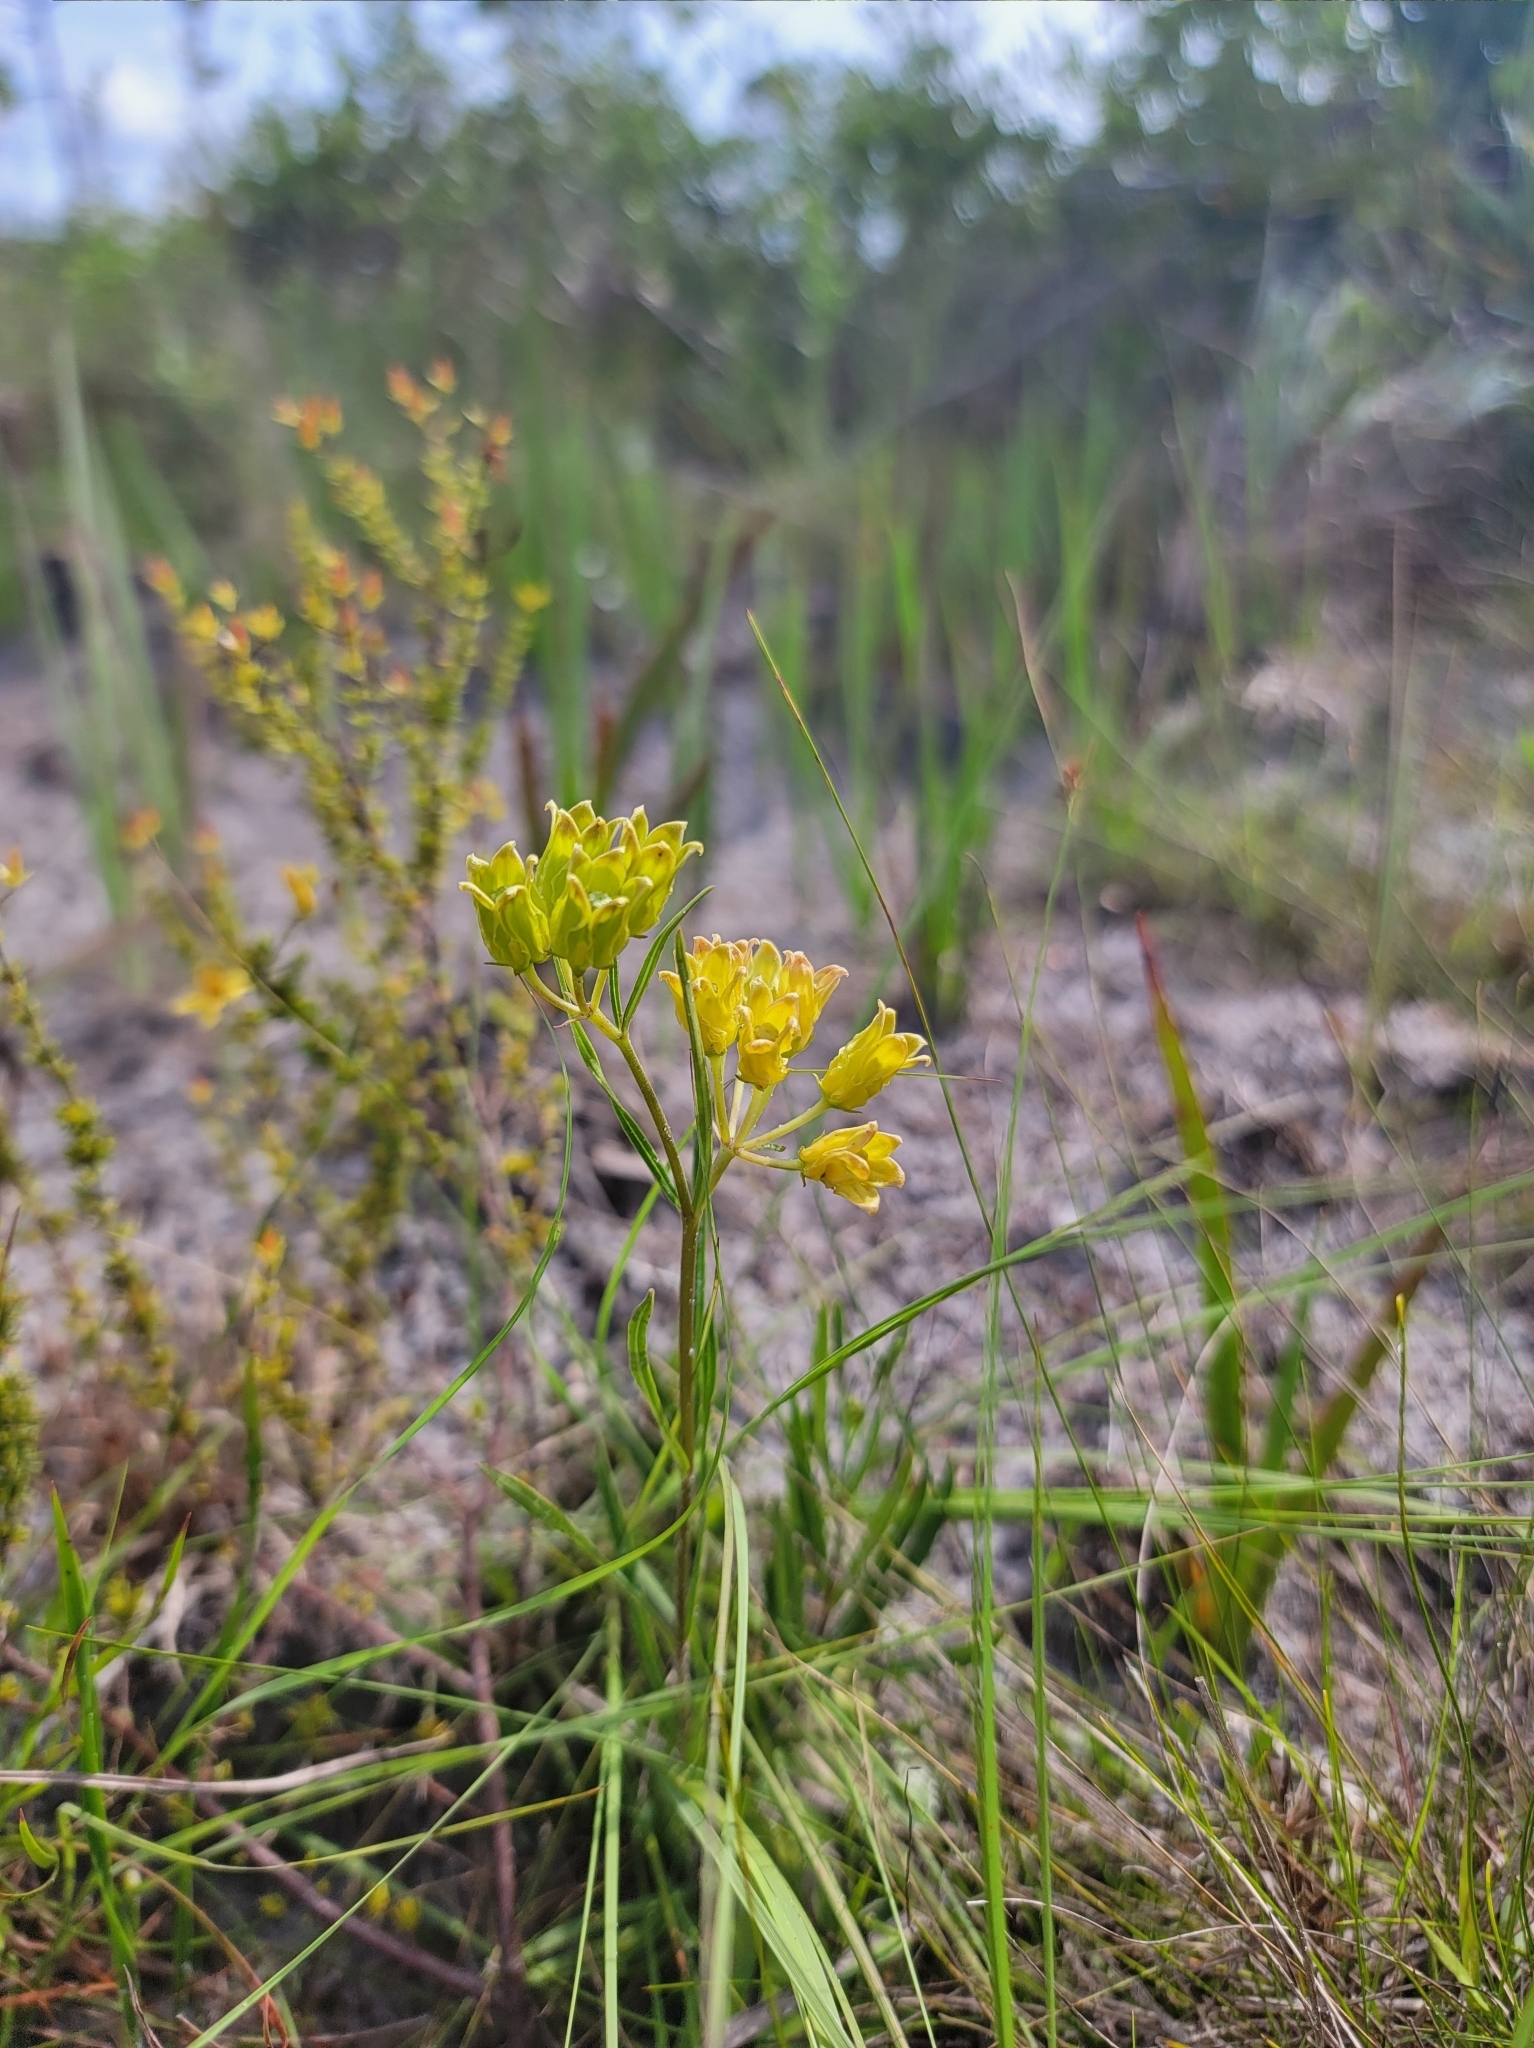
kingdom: Plantae
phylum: Tracheophyta
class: Magnoliopsida
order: Gentianales
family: Apocynaceae
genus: Asclepias
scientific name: Asclepias pedicellata
